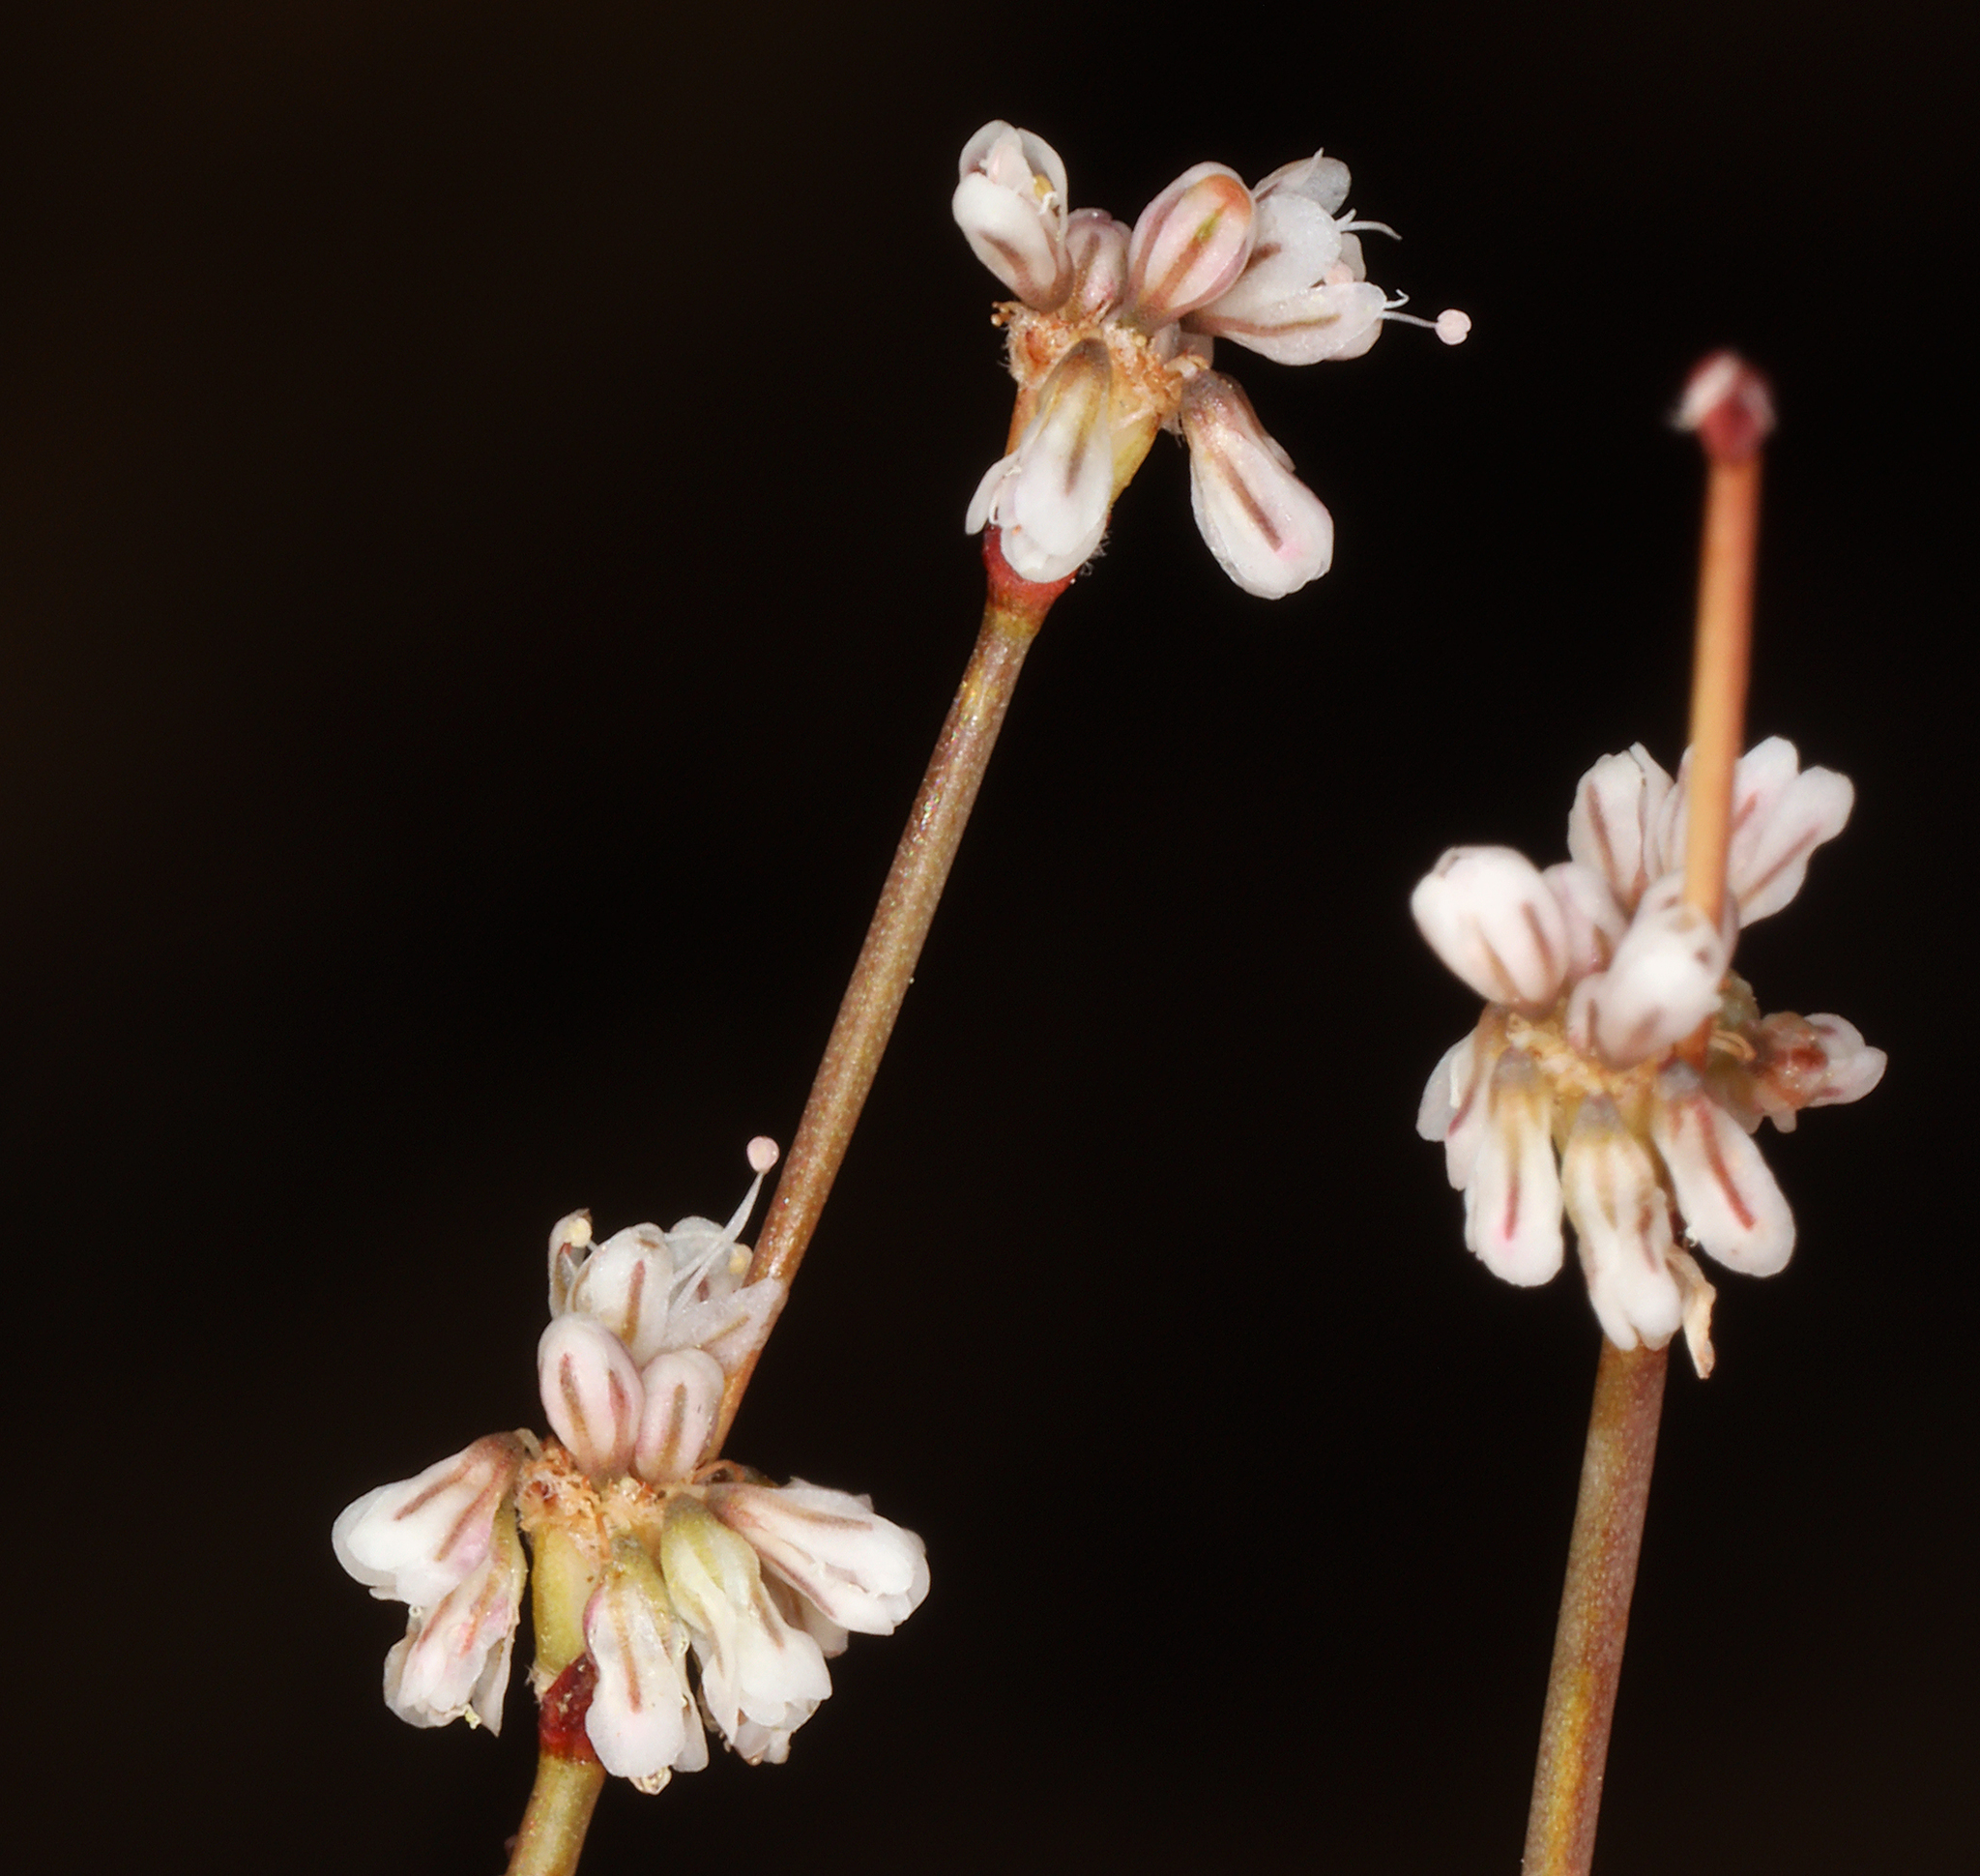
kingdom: Plantae
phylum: Tracheophyta
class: Magnoliopsida
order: Caryophyllales
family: Polygonaceae
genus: Eriogonum
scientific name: Eriogonum baileyi
